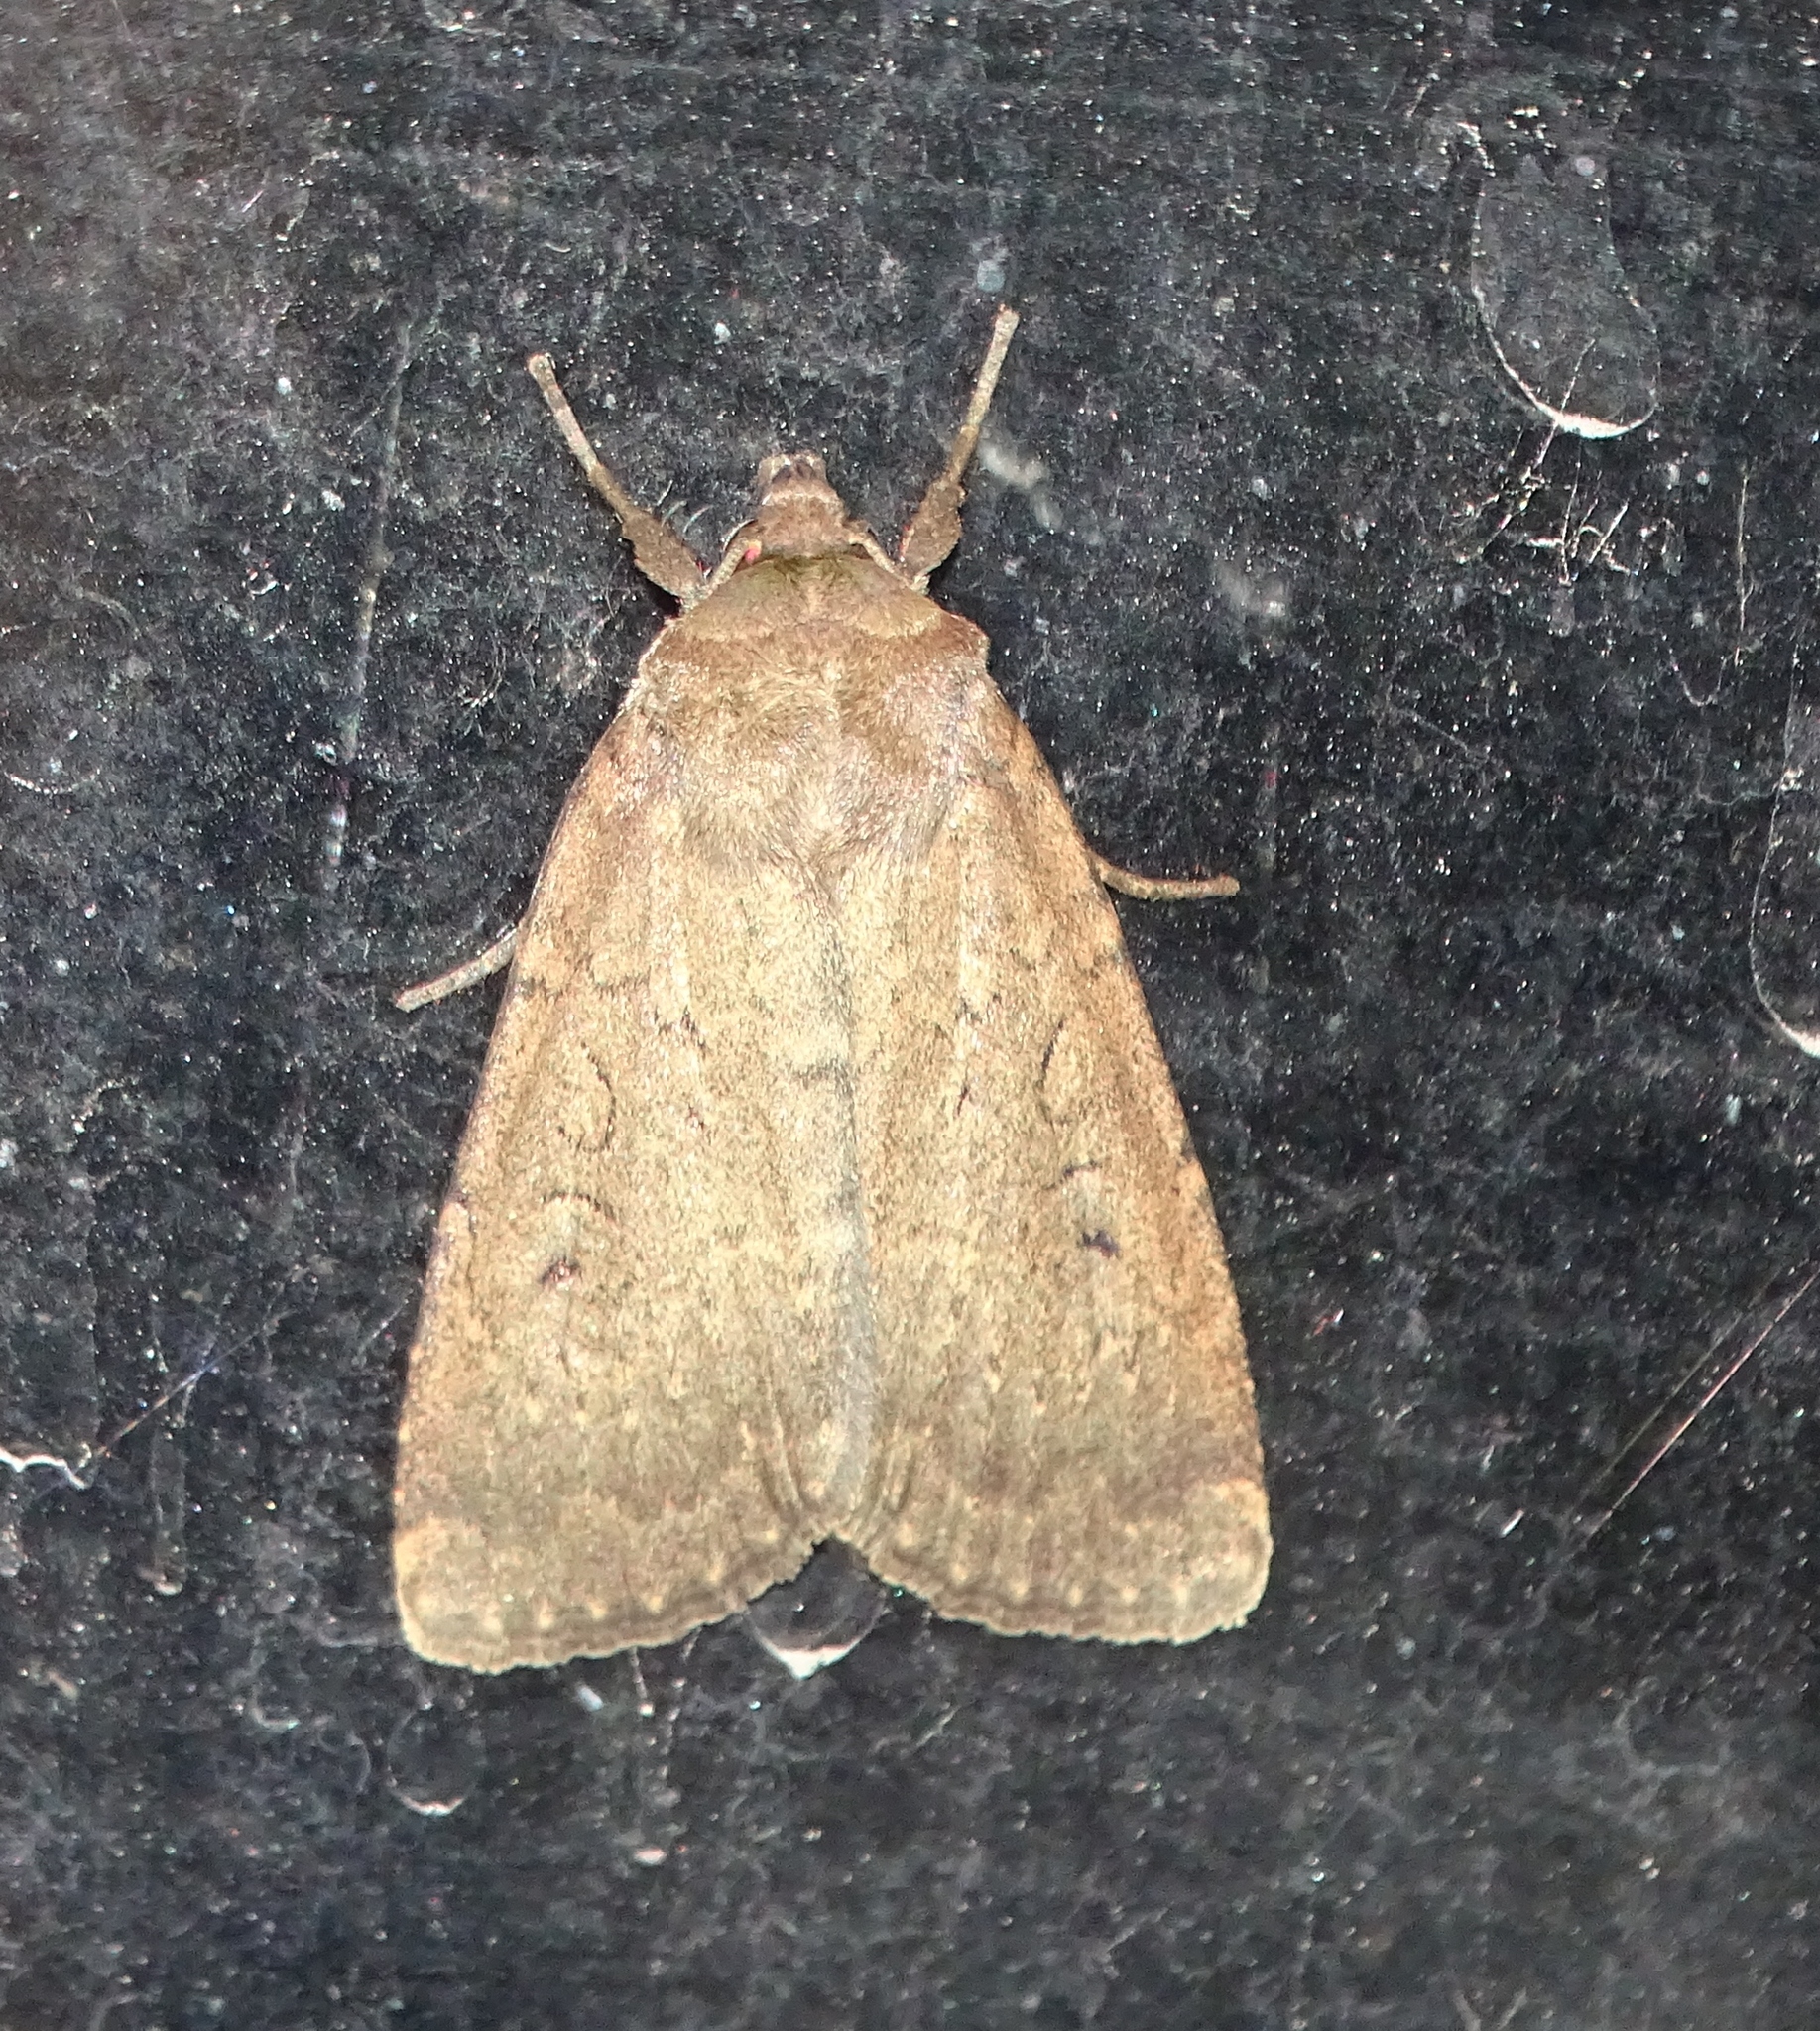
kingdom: Animalia
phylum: Arthropoda
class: Insecta
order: Lepidoptera
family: Noctuidae
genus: Graphiphora
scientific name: Graphiphora augur
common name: Double dart
